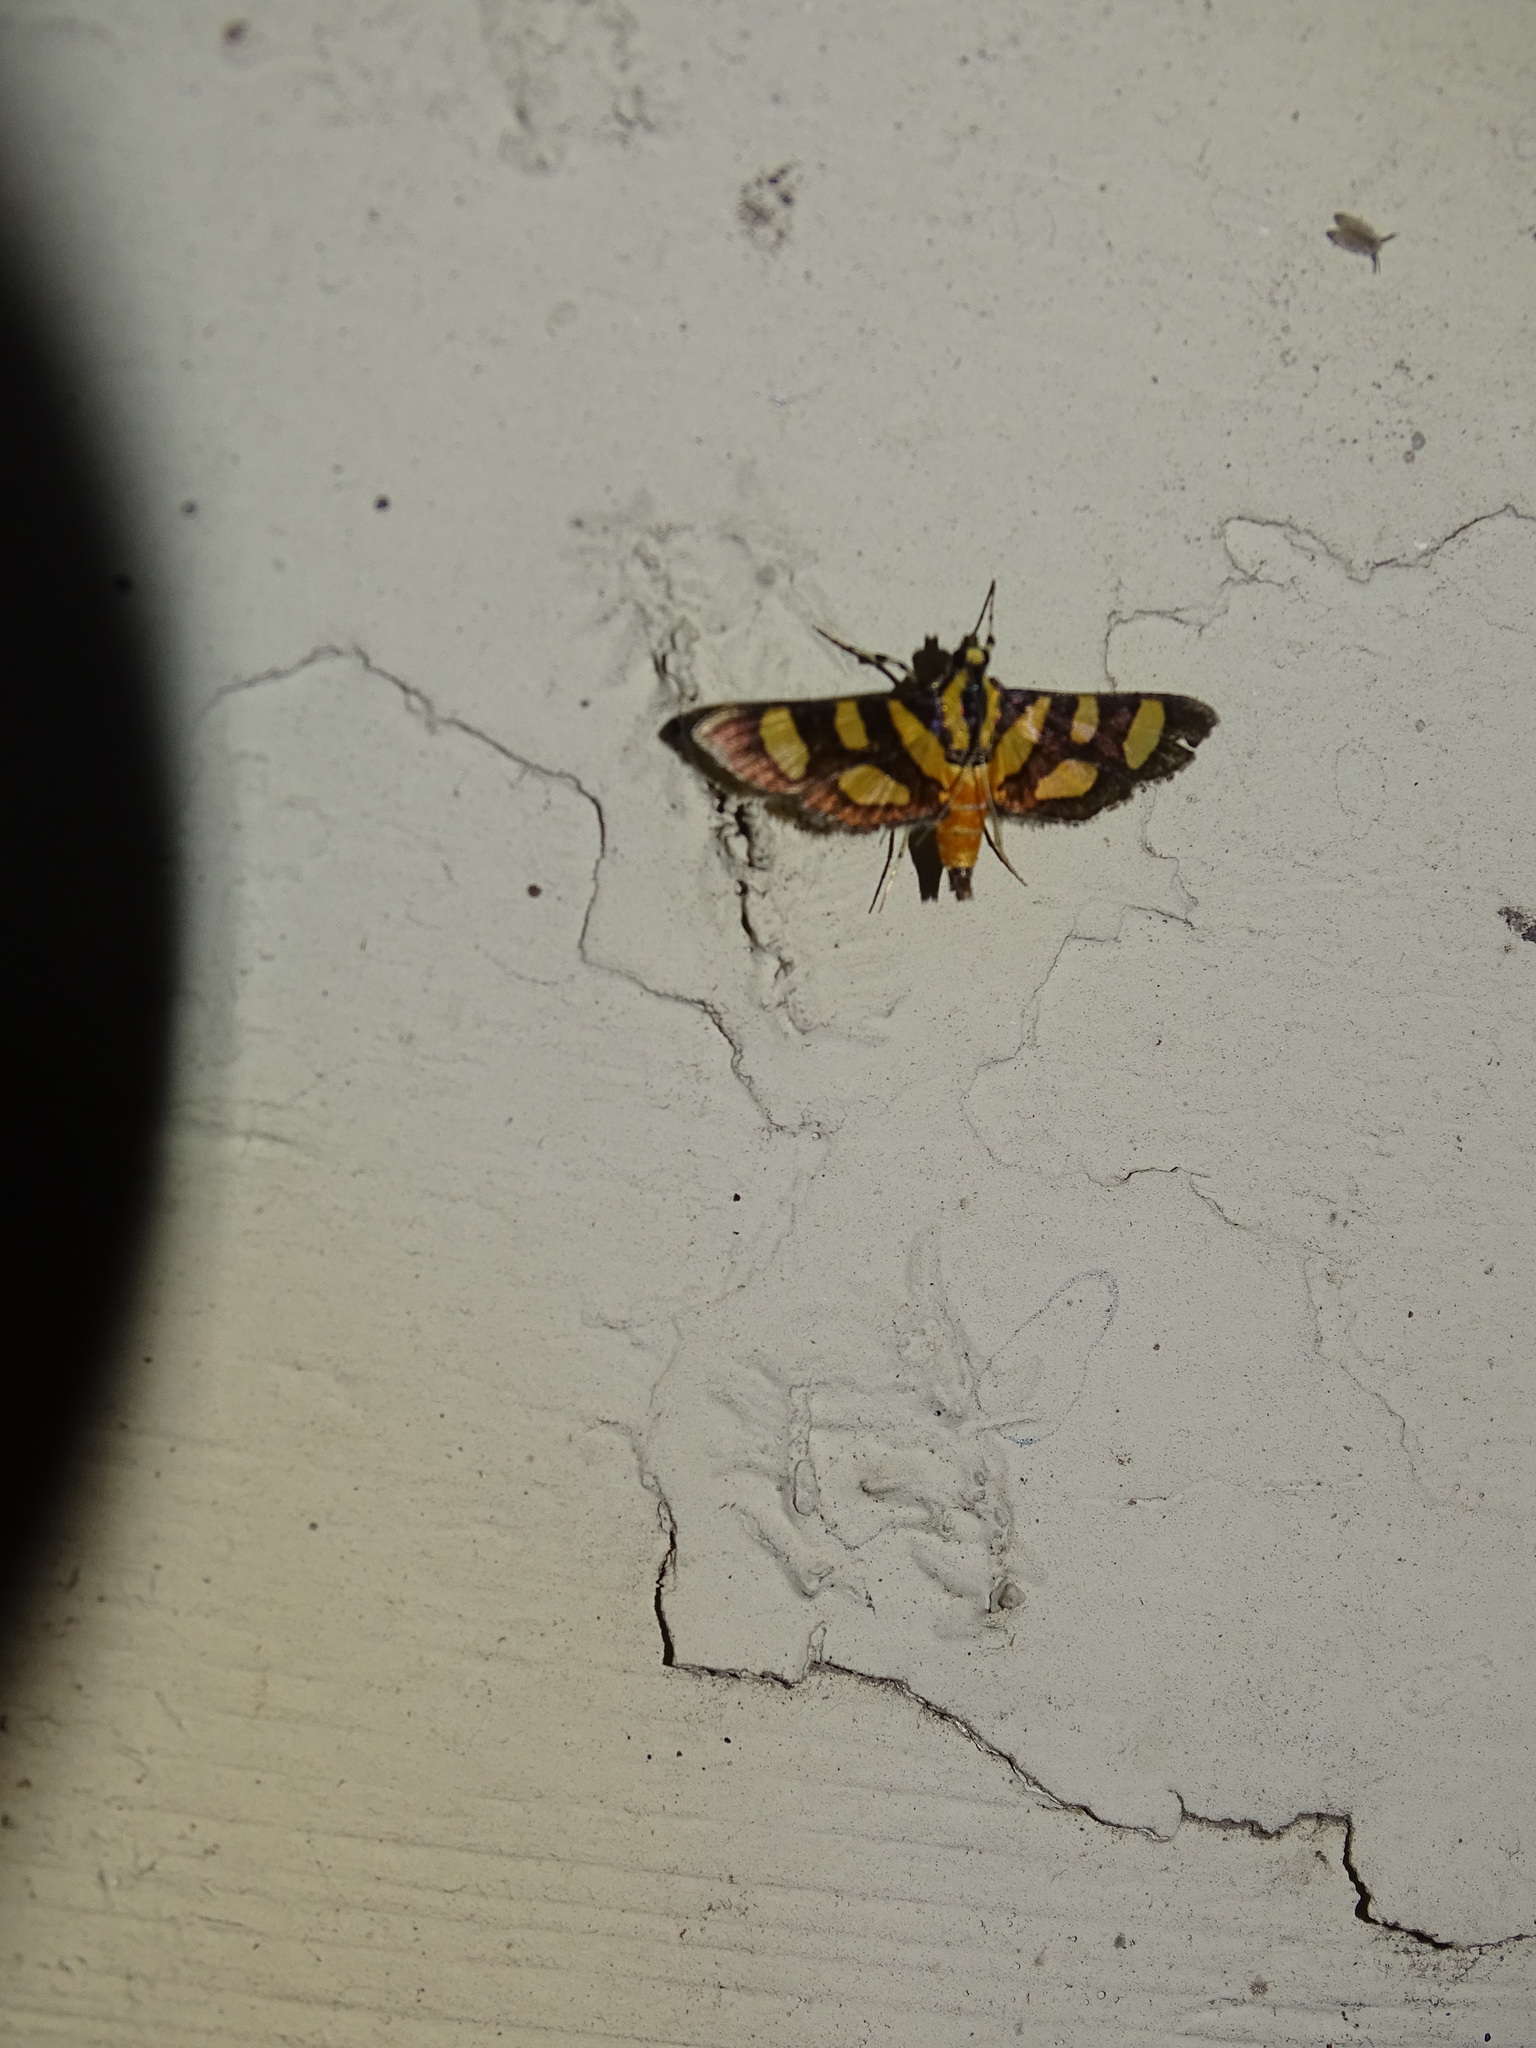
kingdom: Animalia
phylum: Arthropoda
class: Insecta
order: Lepidoptera
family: Crambidae
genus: Syngamia
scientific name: Syngamia florella
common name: Orange-spotted flower moth
